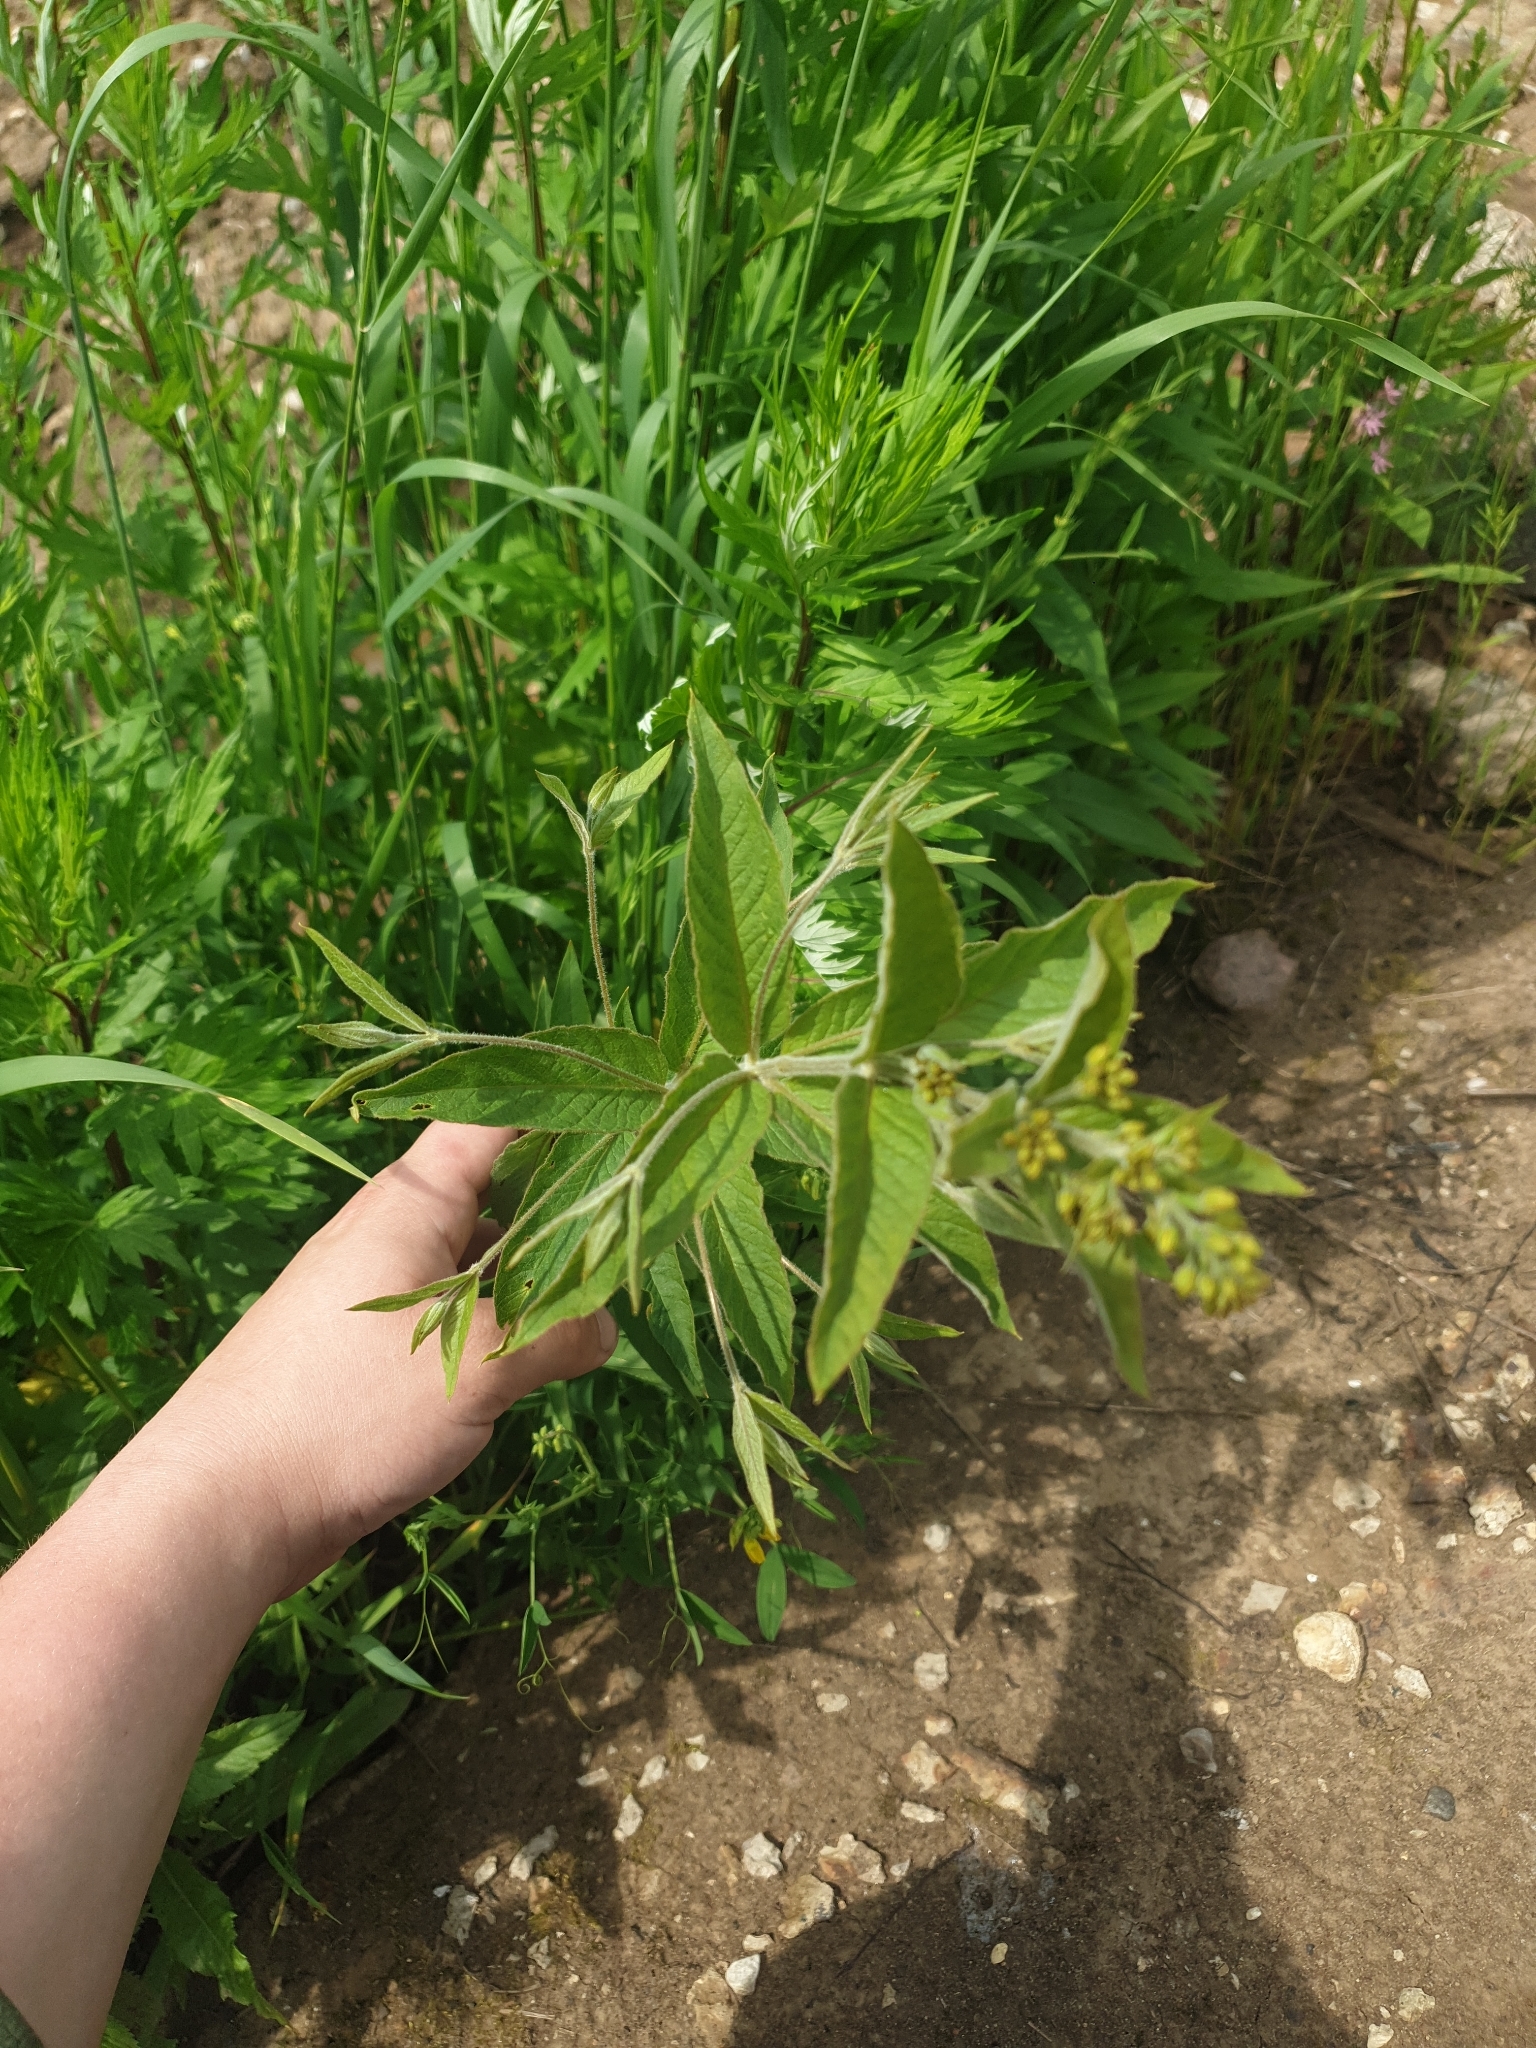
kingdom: Plantae
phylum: Tracheophyta
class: Magnoliopsida
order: Ericales
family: Primulaceae
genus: Lysimachia
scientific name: Lysimachia vulgaris
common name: Yellow loosestrife
